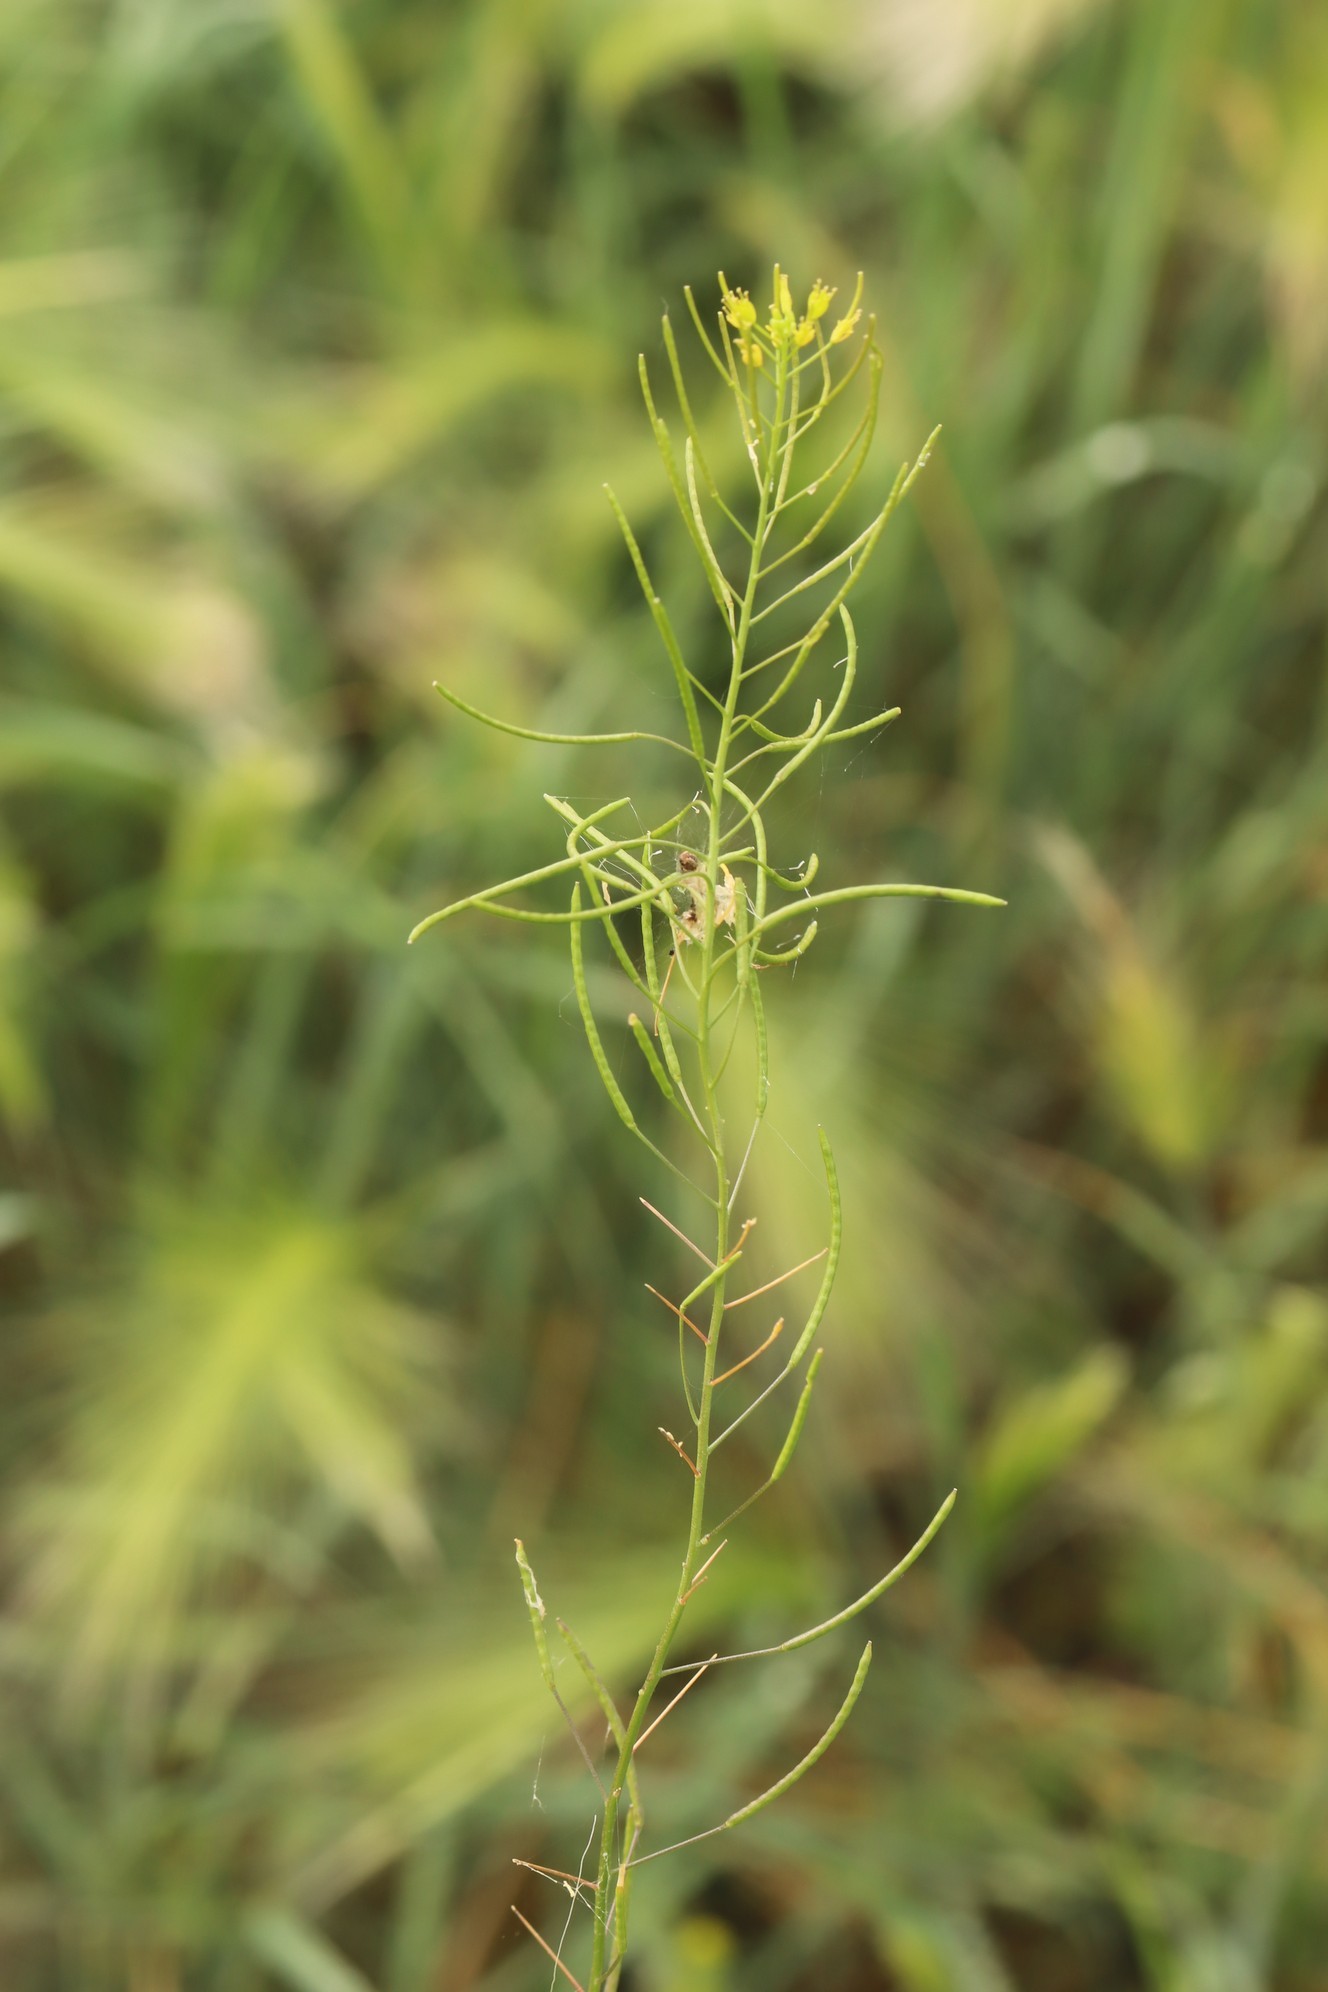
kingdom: Plantae
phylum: Tracheophyta
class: Magnoliopsida
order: Brassicales
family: Brassicaceae
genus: Descurainia
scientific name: Descurainia sophia
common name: Flixweed
